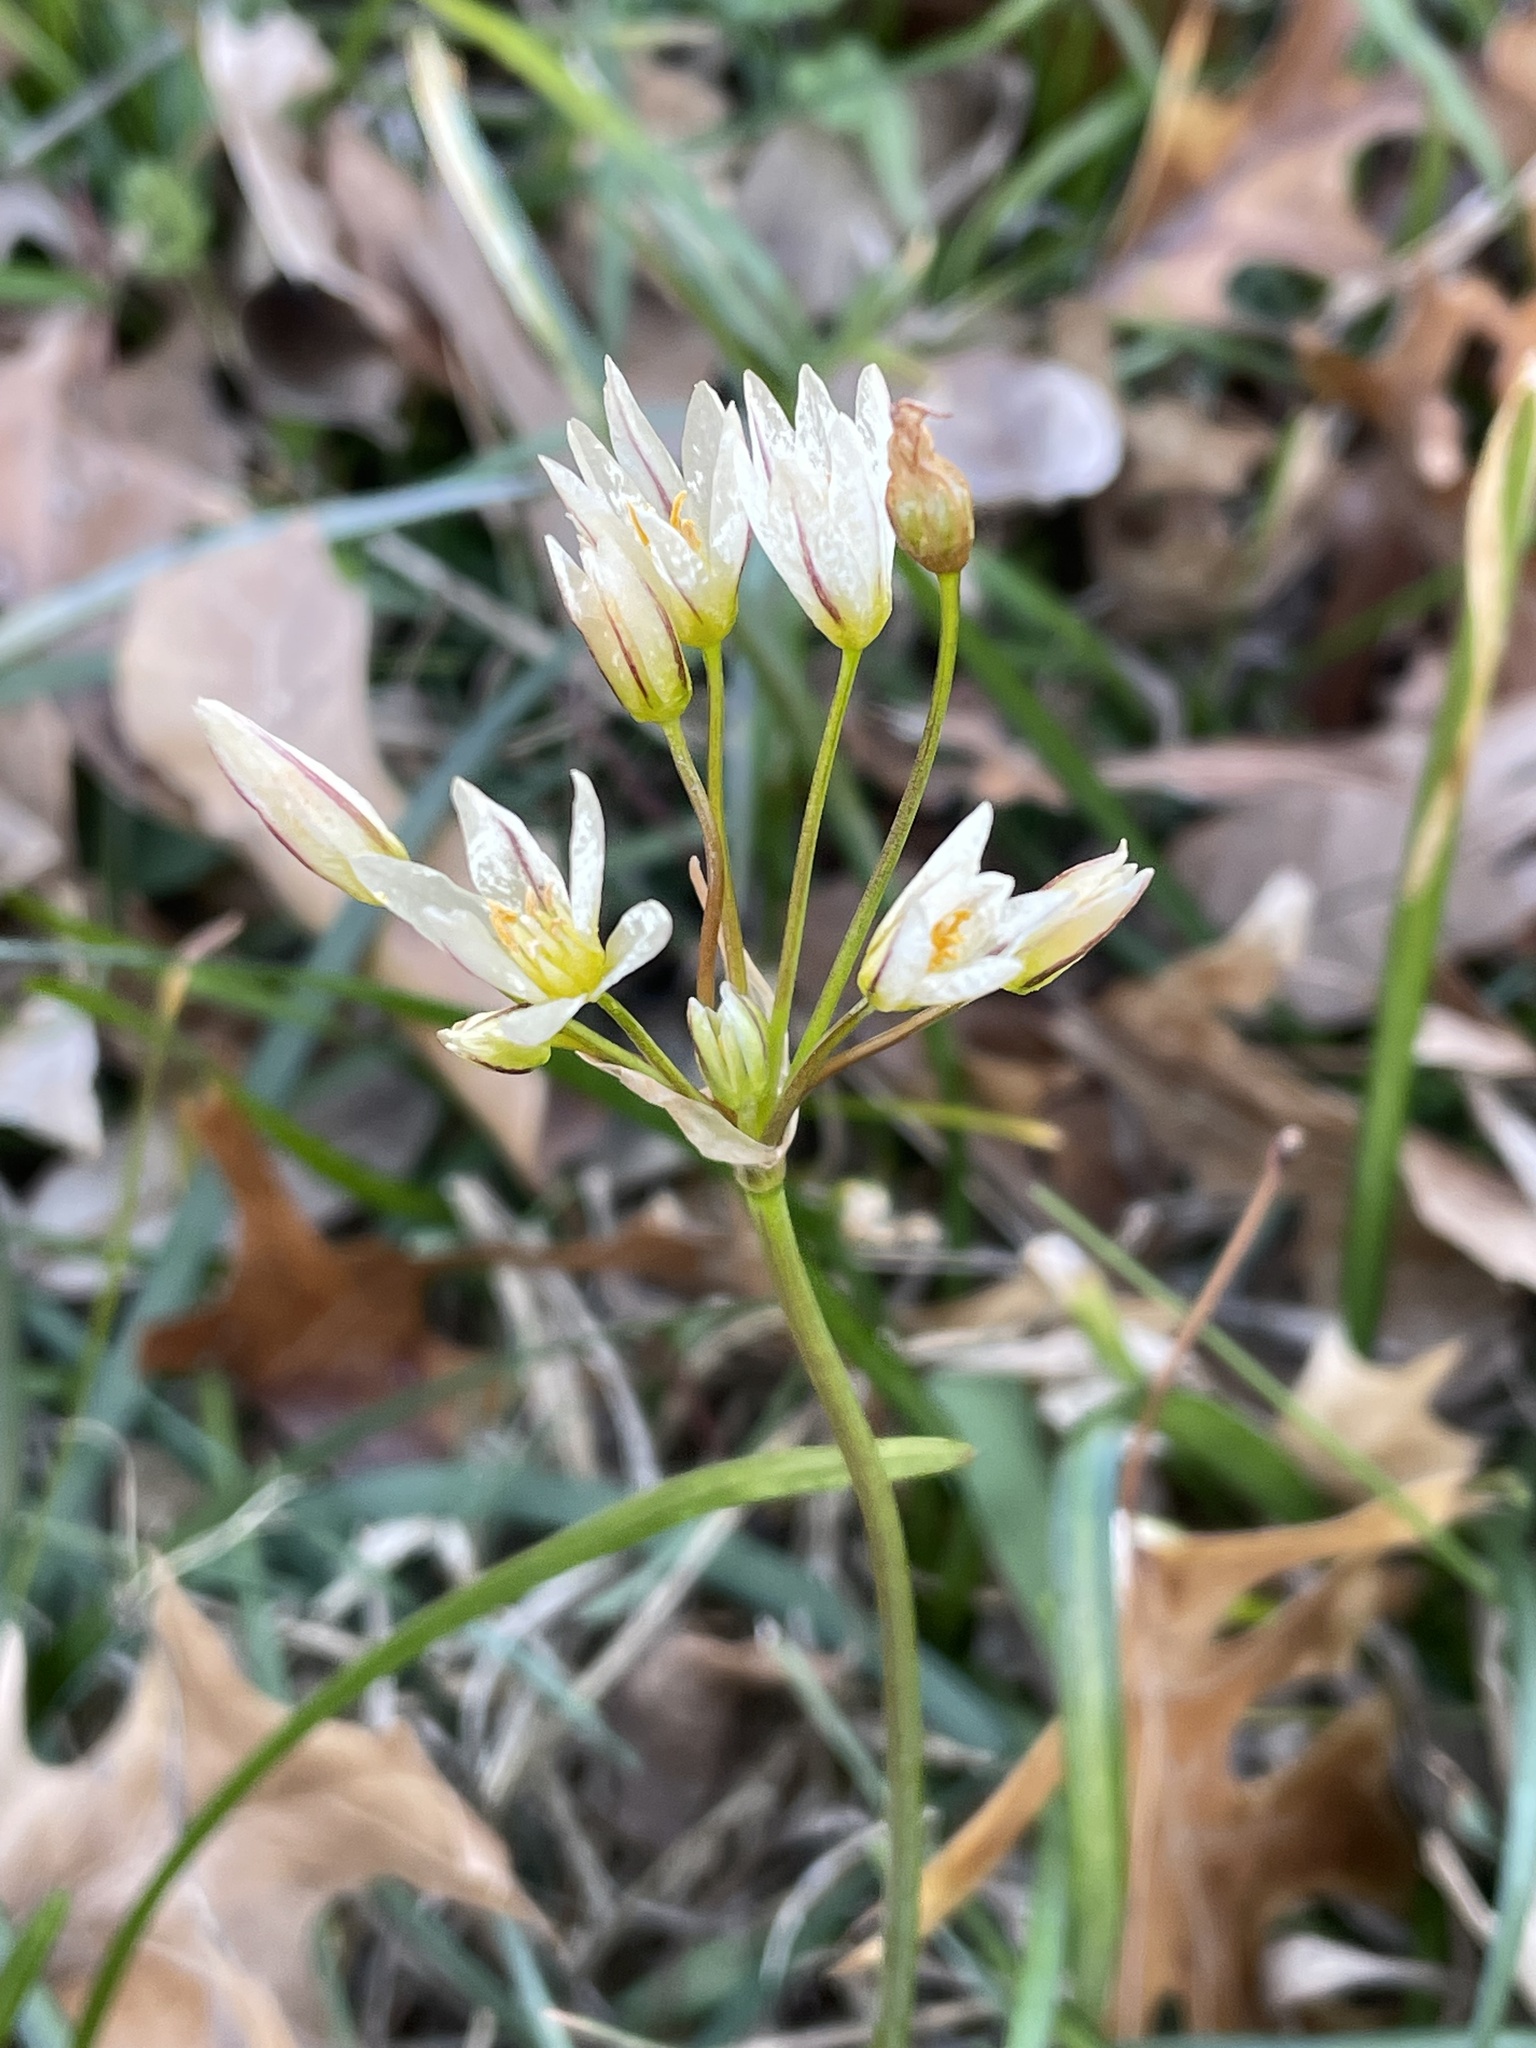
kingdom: Plantae
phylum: Tracheophyta
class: Liliopsida
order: Asparagales
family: Amaryllidaceae
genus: Nothoscordum
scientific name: Nothoscordum bivalve
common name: Crow-poison
